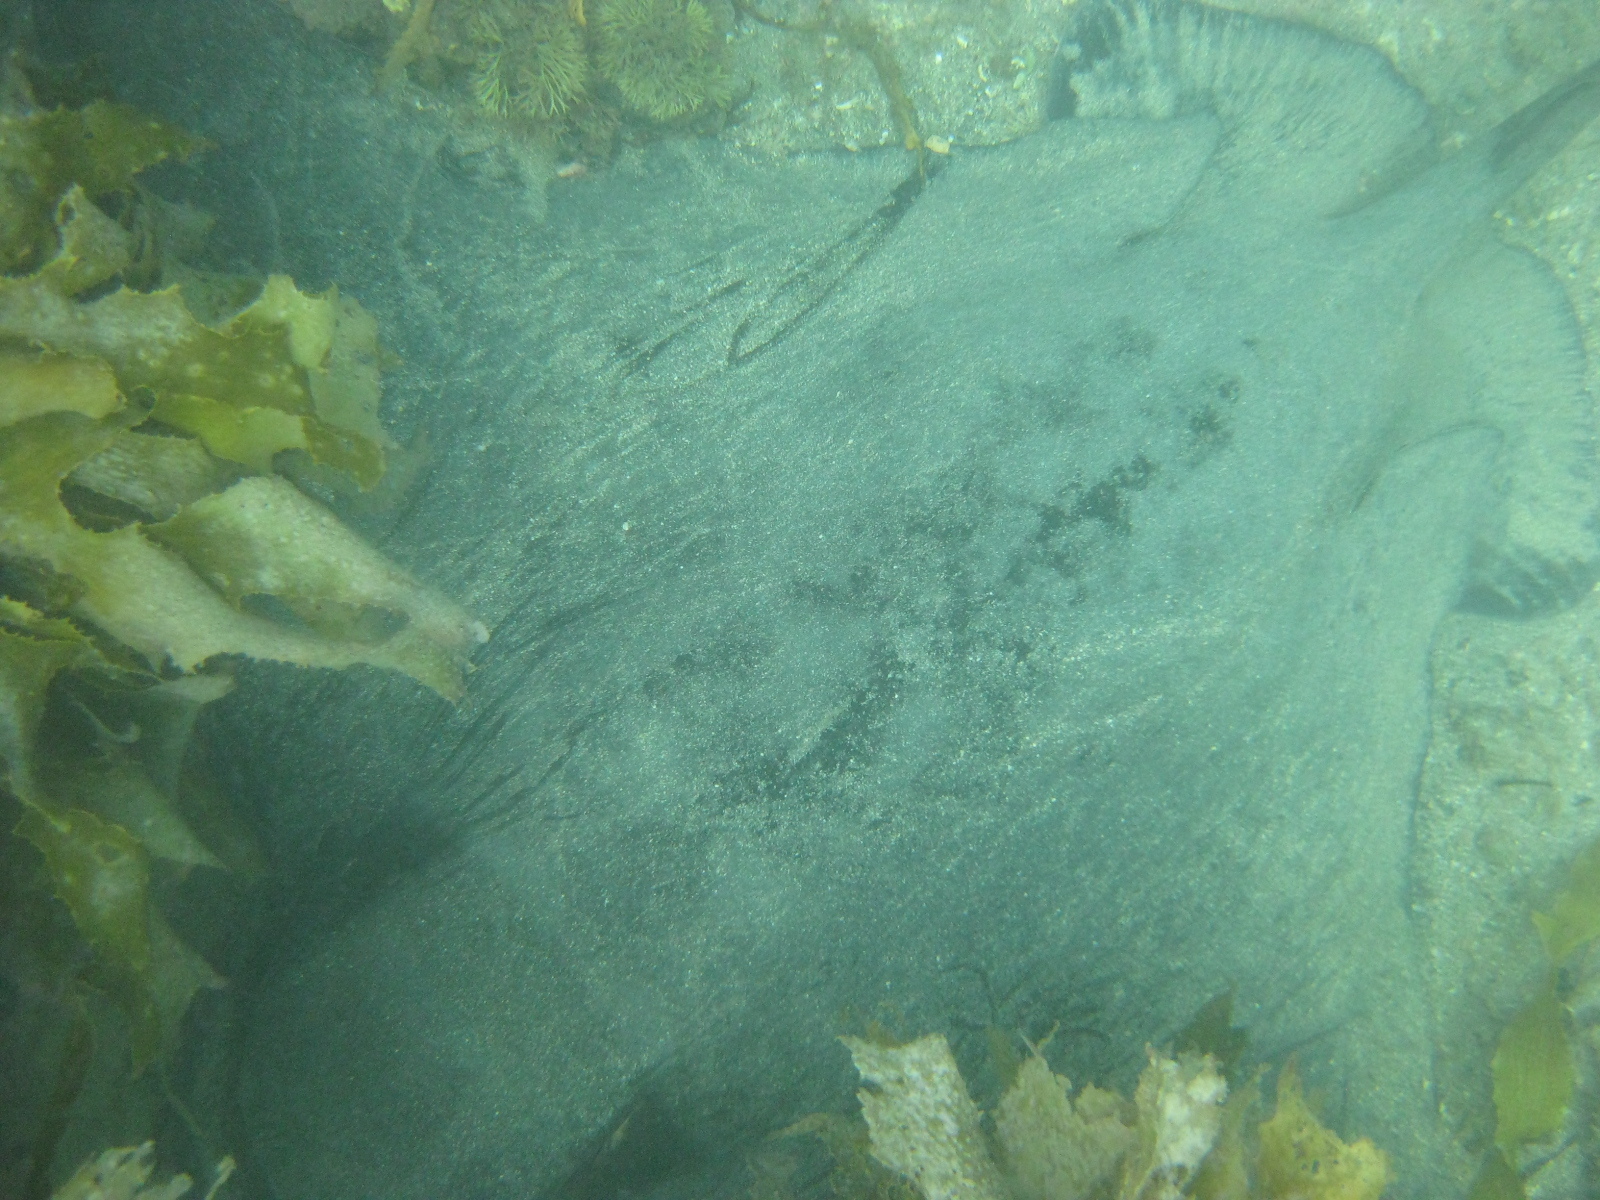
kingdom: Animalia
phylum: Chordata
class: Elasmobranchii
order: Myliobatiformes
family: Myliobatidae
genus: Myliobatis
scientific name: Myliobatis tenuicaudatus
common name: Eagle ray
